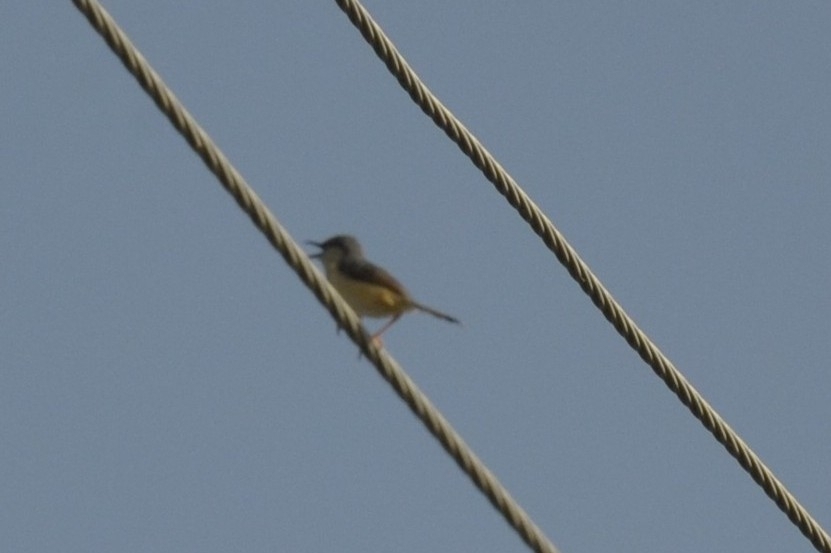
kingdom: Animalia
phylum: Chordata
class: Aves
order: Passeriformes
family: Cisticolidae
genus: Prinia
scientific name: Prinia socialis
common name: Ashy prinia
